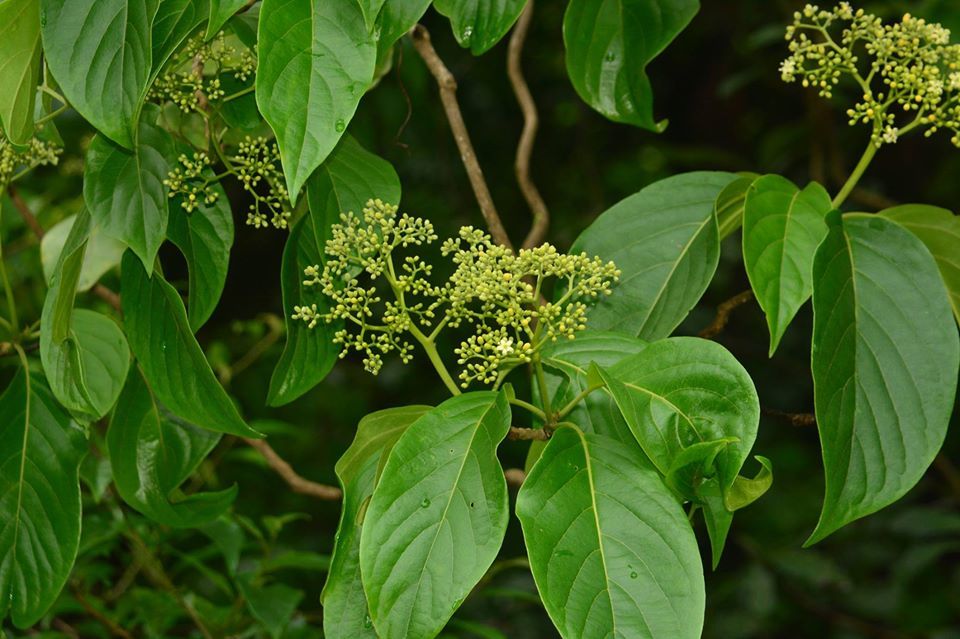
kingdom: Plantae
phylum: Tracheophyta
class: Magnoliopsida
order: Icacinales
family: Icacinaceae
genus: Nothapodytes
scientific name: Nothapodytes nimmoniana
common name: Nothapodytes
